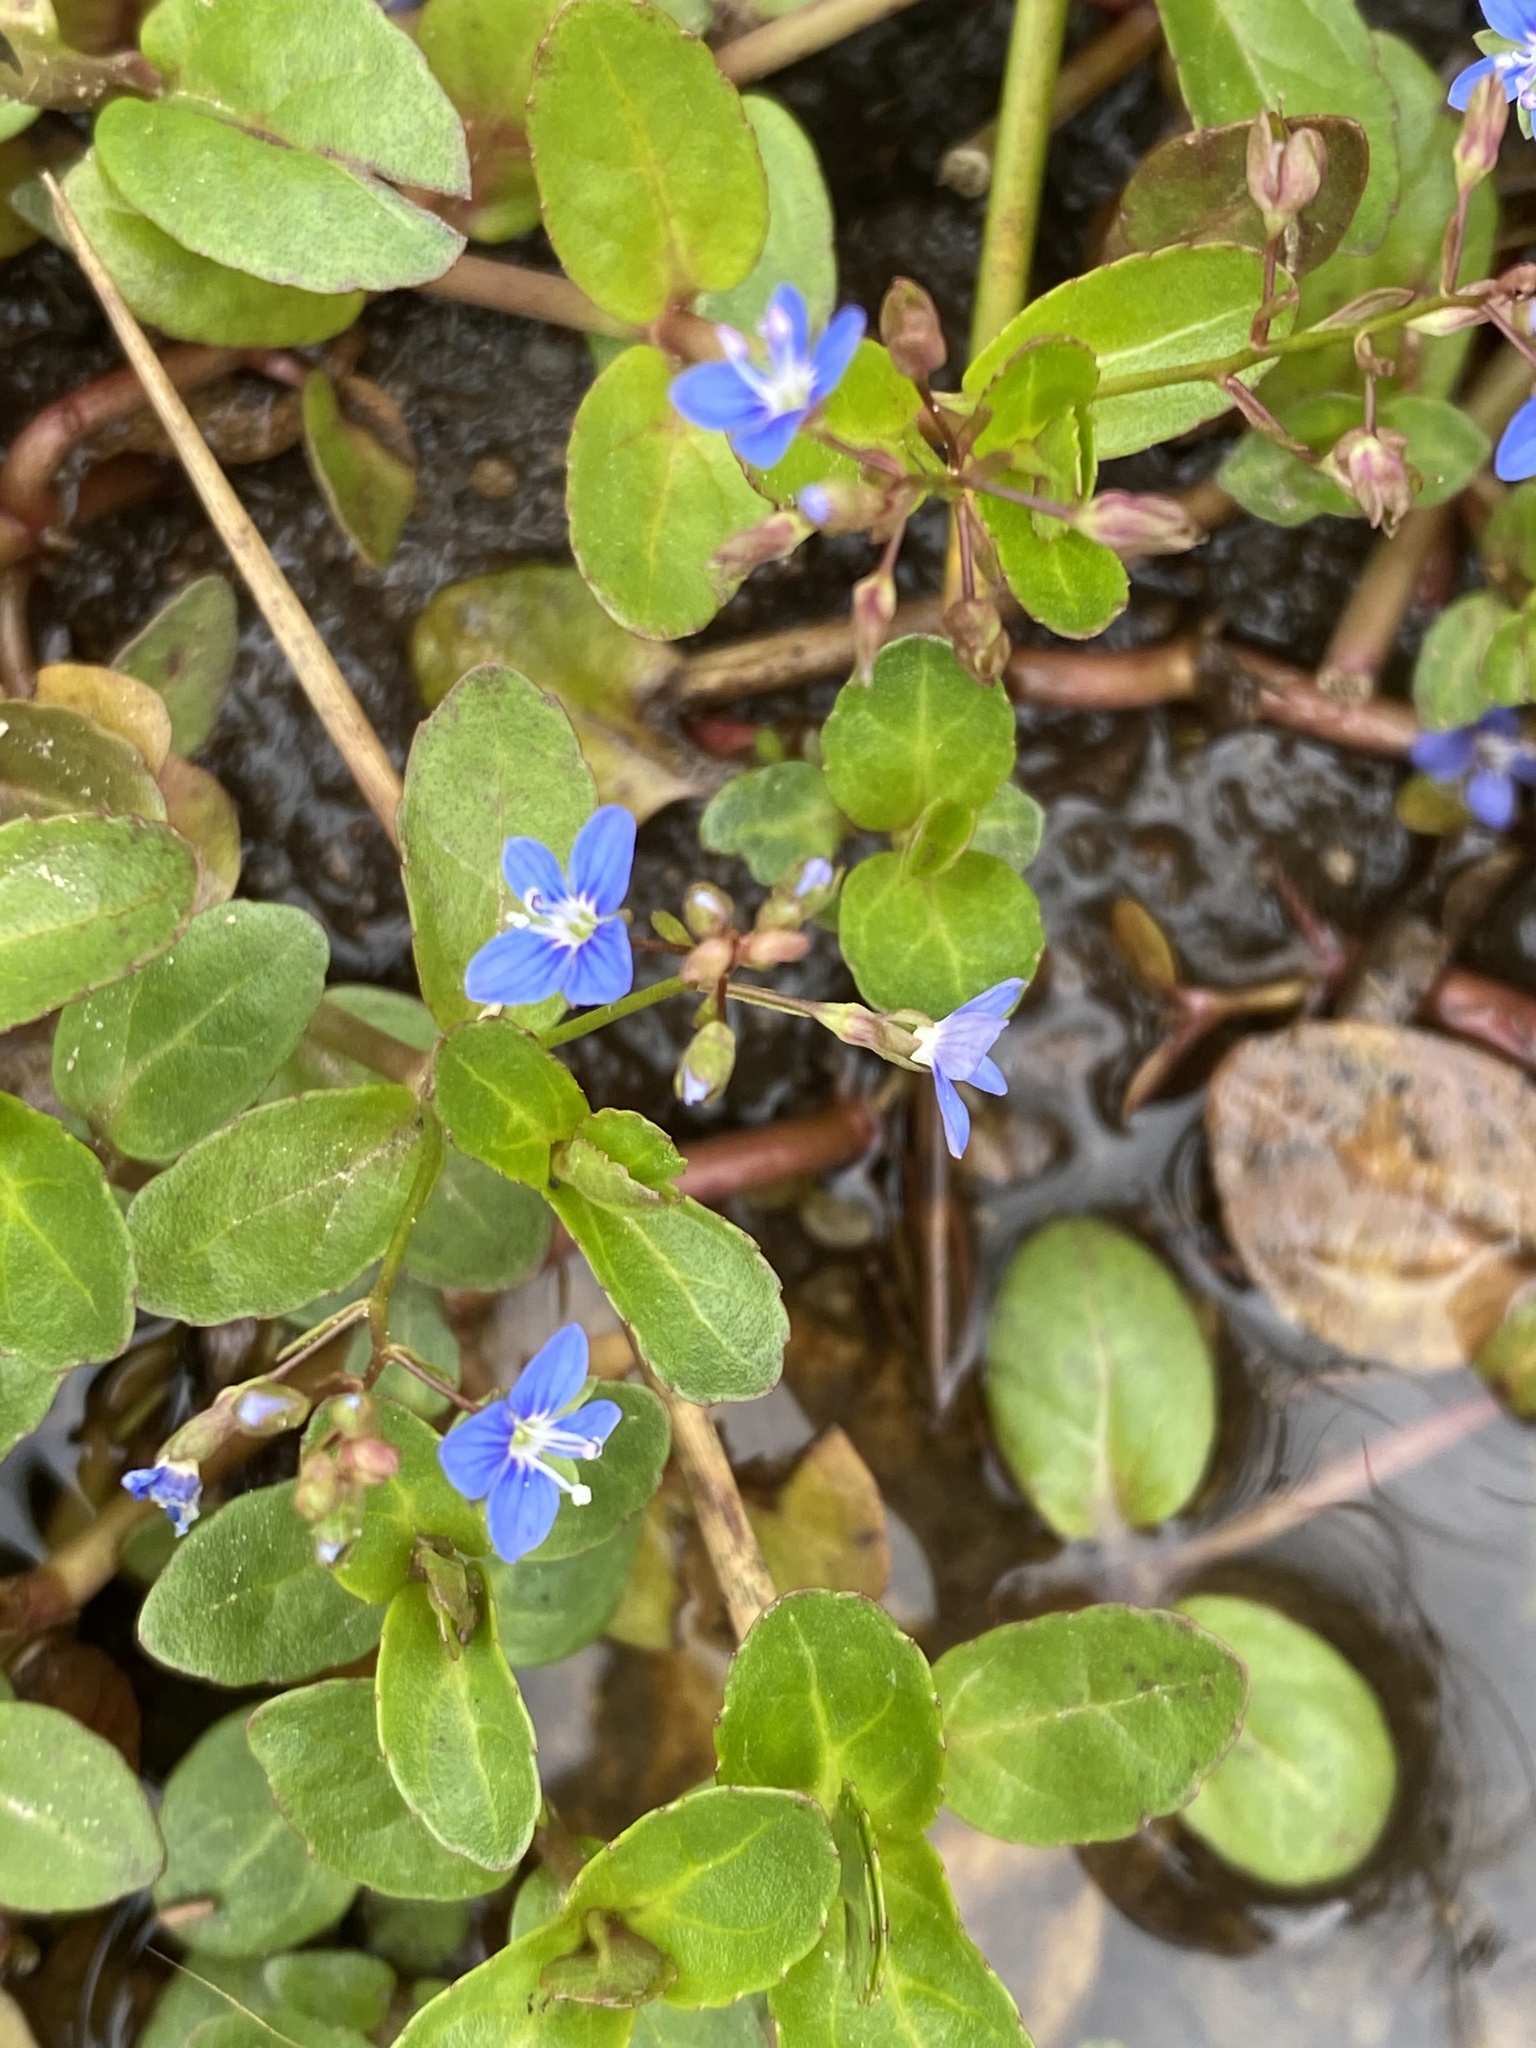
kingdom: Plantae
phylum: Tracheophyta
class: Magnoliopsida
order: Lamiales
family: Plantaginaceae
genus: Veronica
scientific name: Veronica beccabunga
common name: Brooklime
